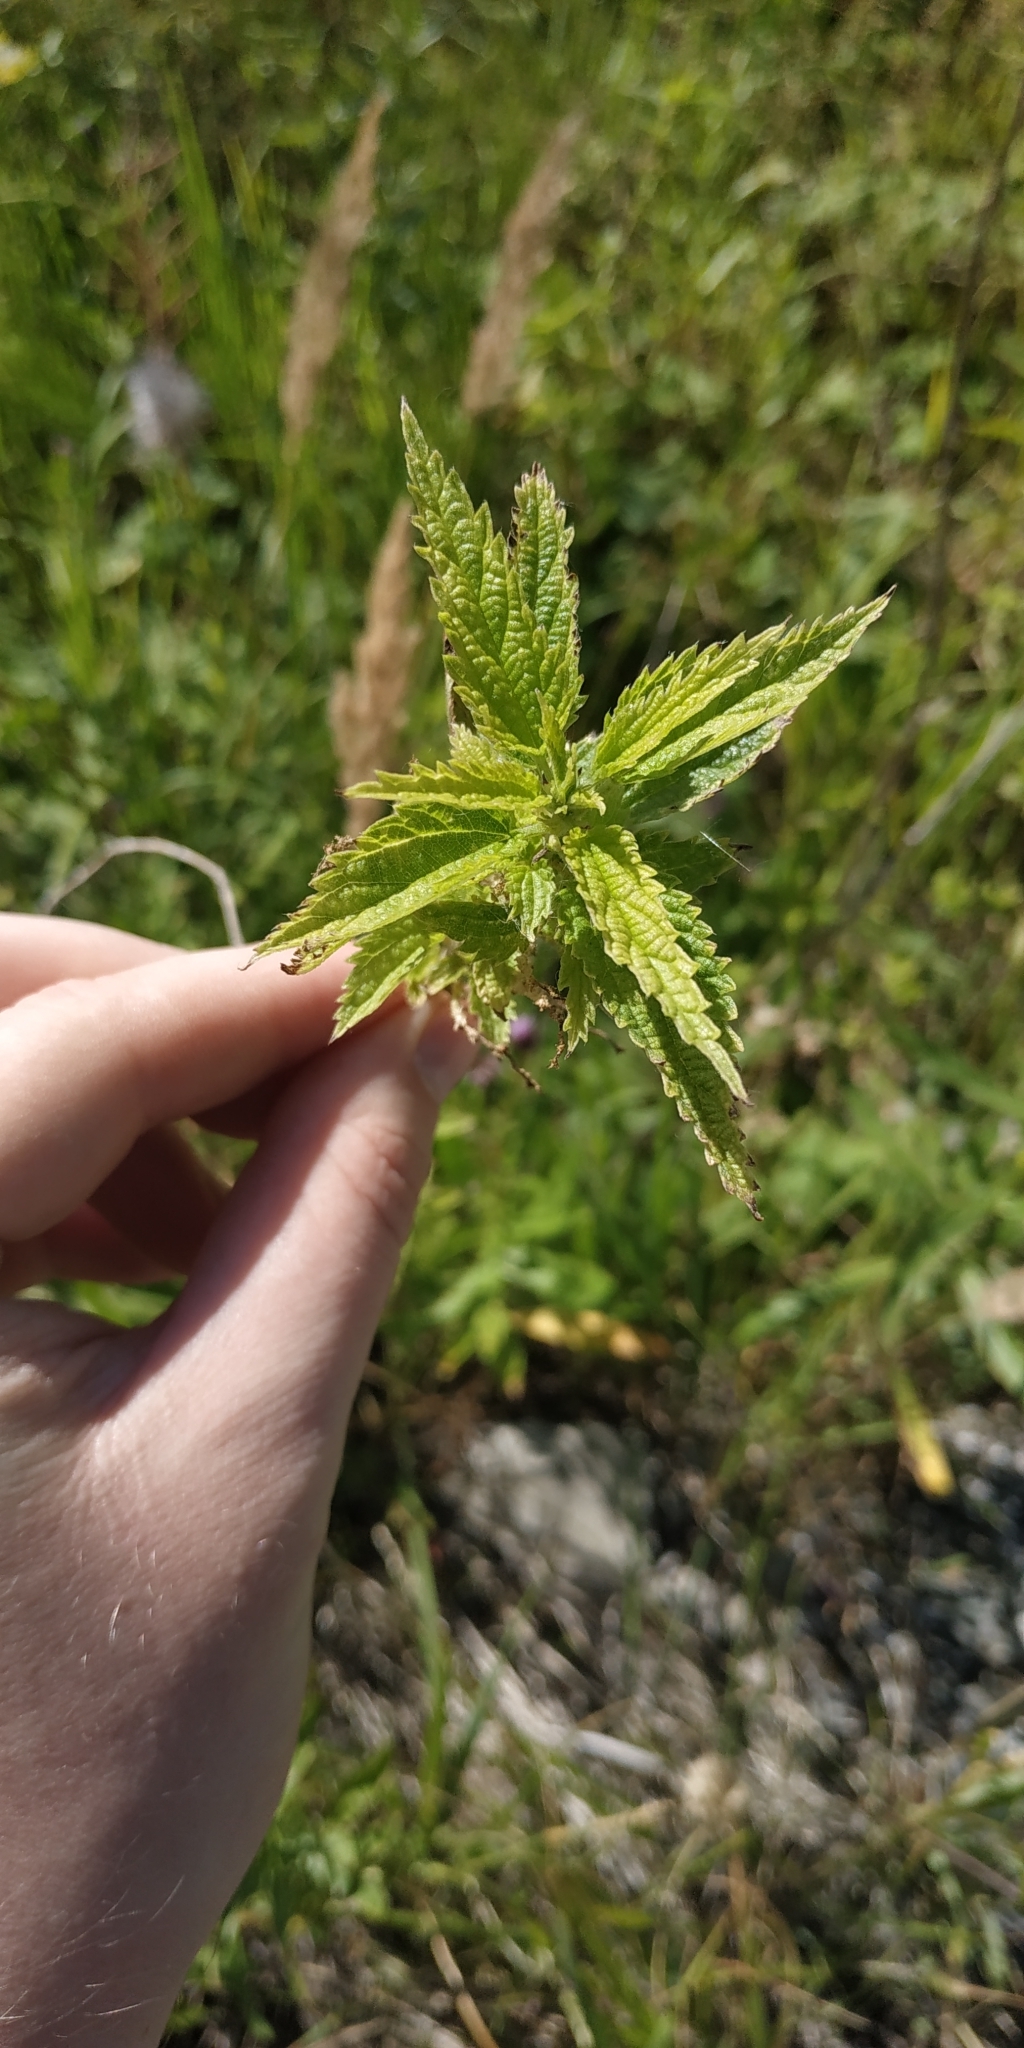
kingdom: Plantae
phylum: Tracheophyta
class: Magnoliopsida
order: Rosales
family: Urticaceae
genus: Urtica
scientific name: Urtica galeopsifolia
